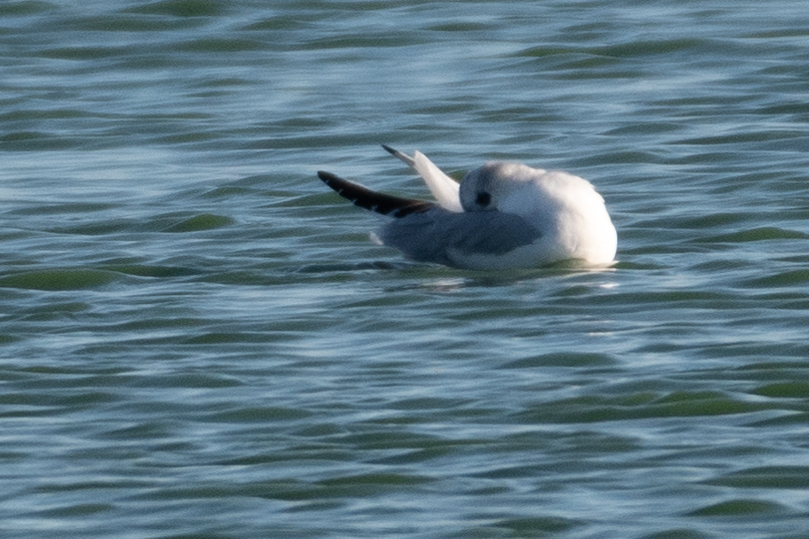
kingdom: Animalia
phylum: Chordata
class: Aves
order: Charadriiformes
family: Laridae
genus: Chroicocephalus
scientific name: Chroicocephalus philadelphia
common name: Bonaparte's gull
